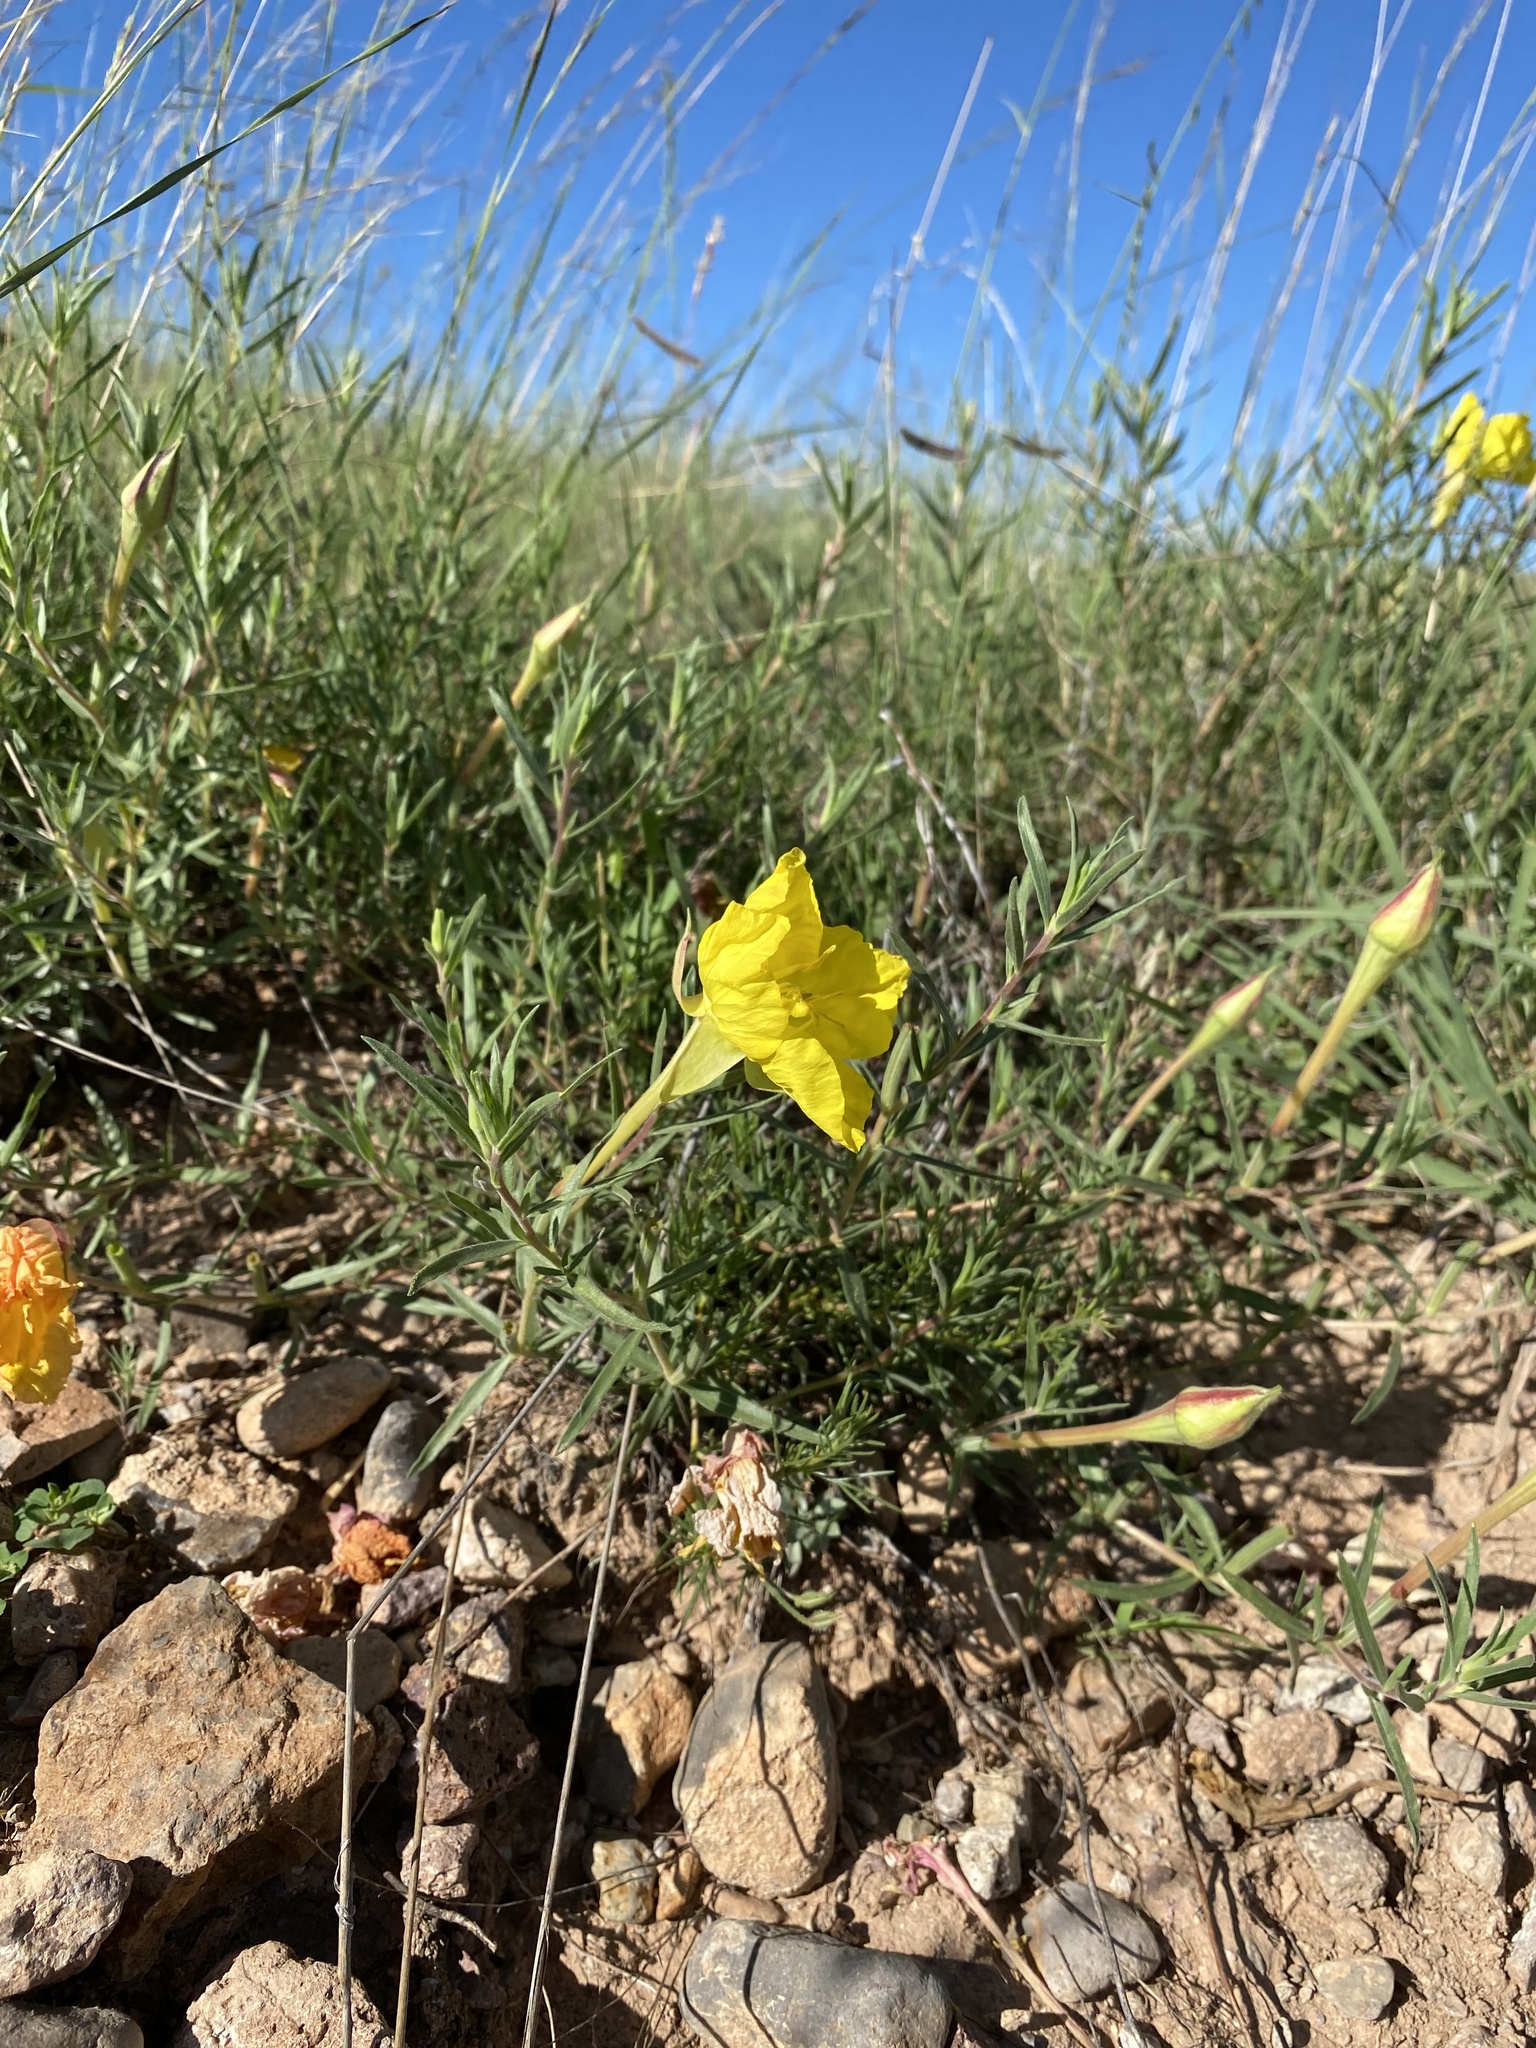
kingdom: Plantae
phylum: Tracheophyta
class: Magnoliopsida
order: Myrtales
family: Onagraceae
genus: Oenothera
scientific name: Oenothera hartwegii
